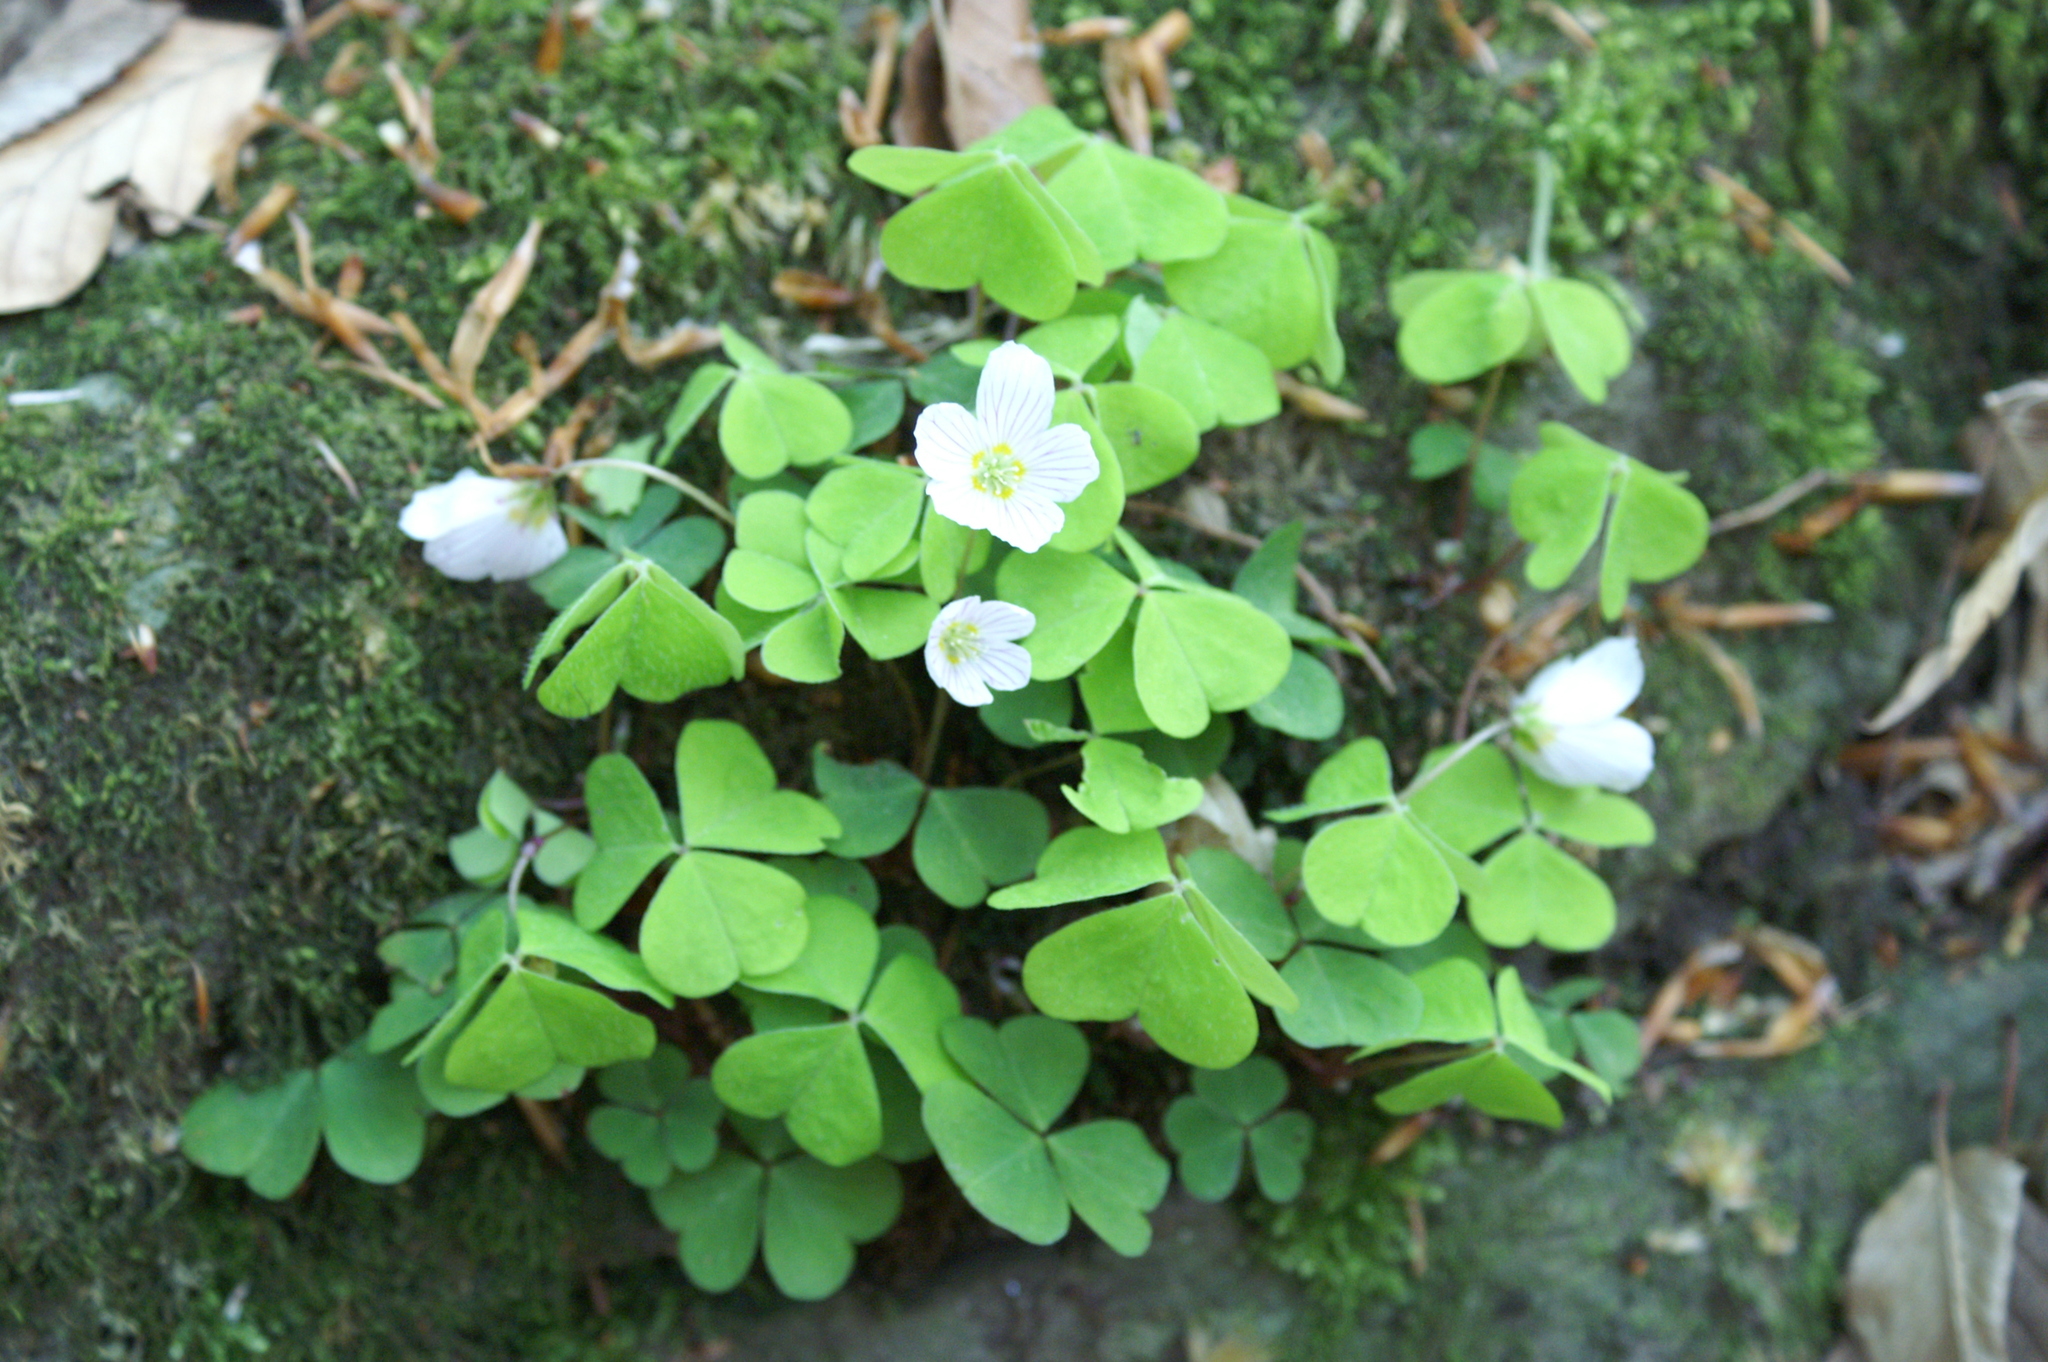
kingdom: Plantae
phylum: Tracheophyta
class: Magnoliopsida
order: Oxalidales
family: Oxalidaceae
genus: Oxalis
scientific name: Oxalis acetosella
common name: Wood-sorrel
